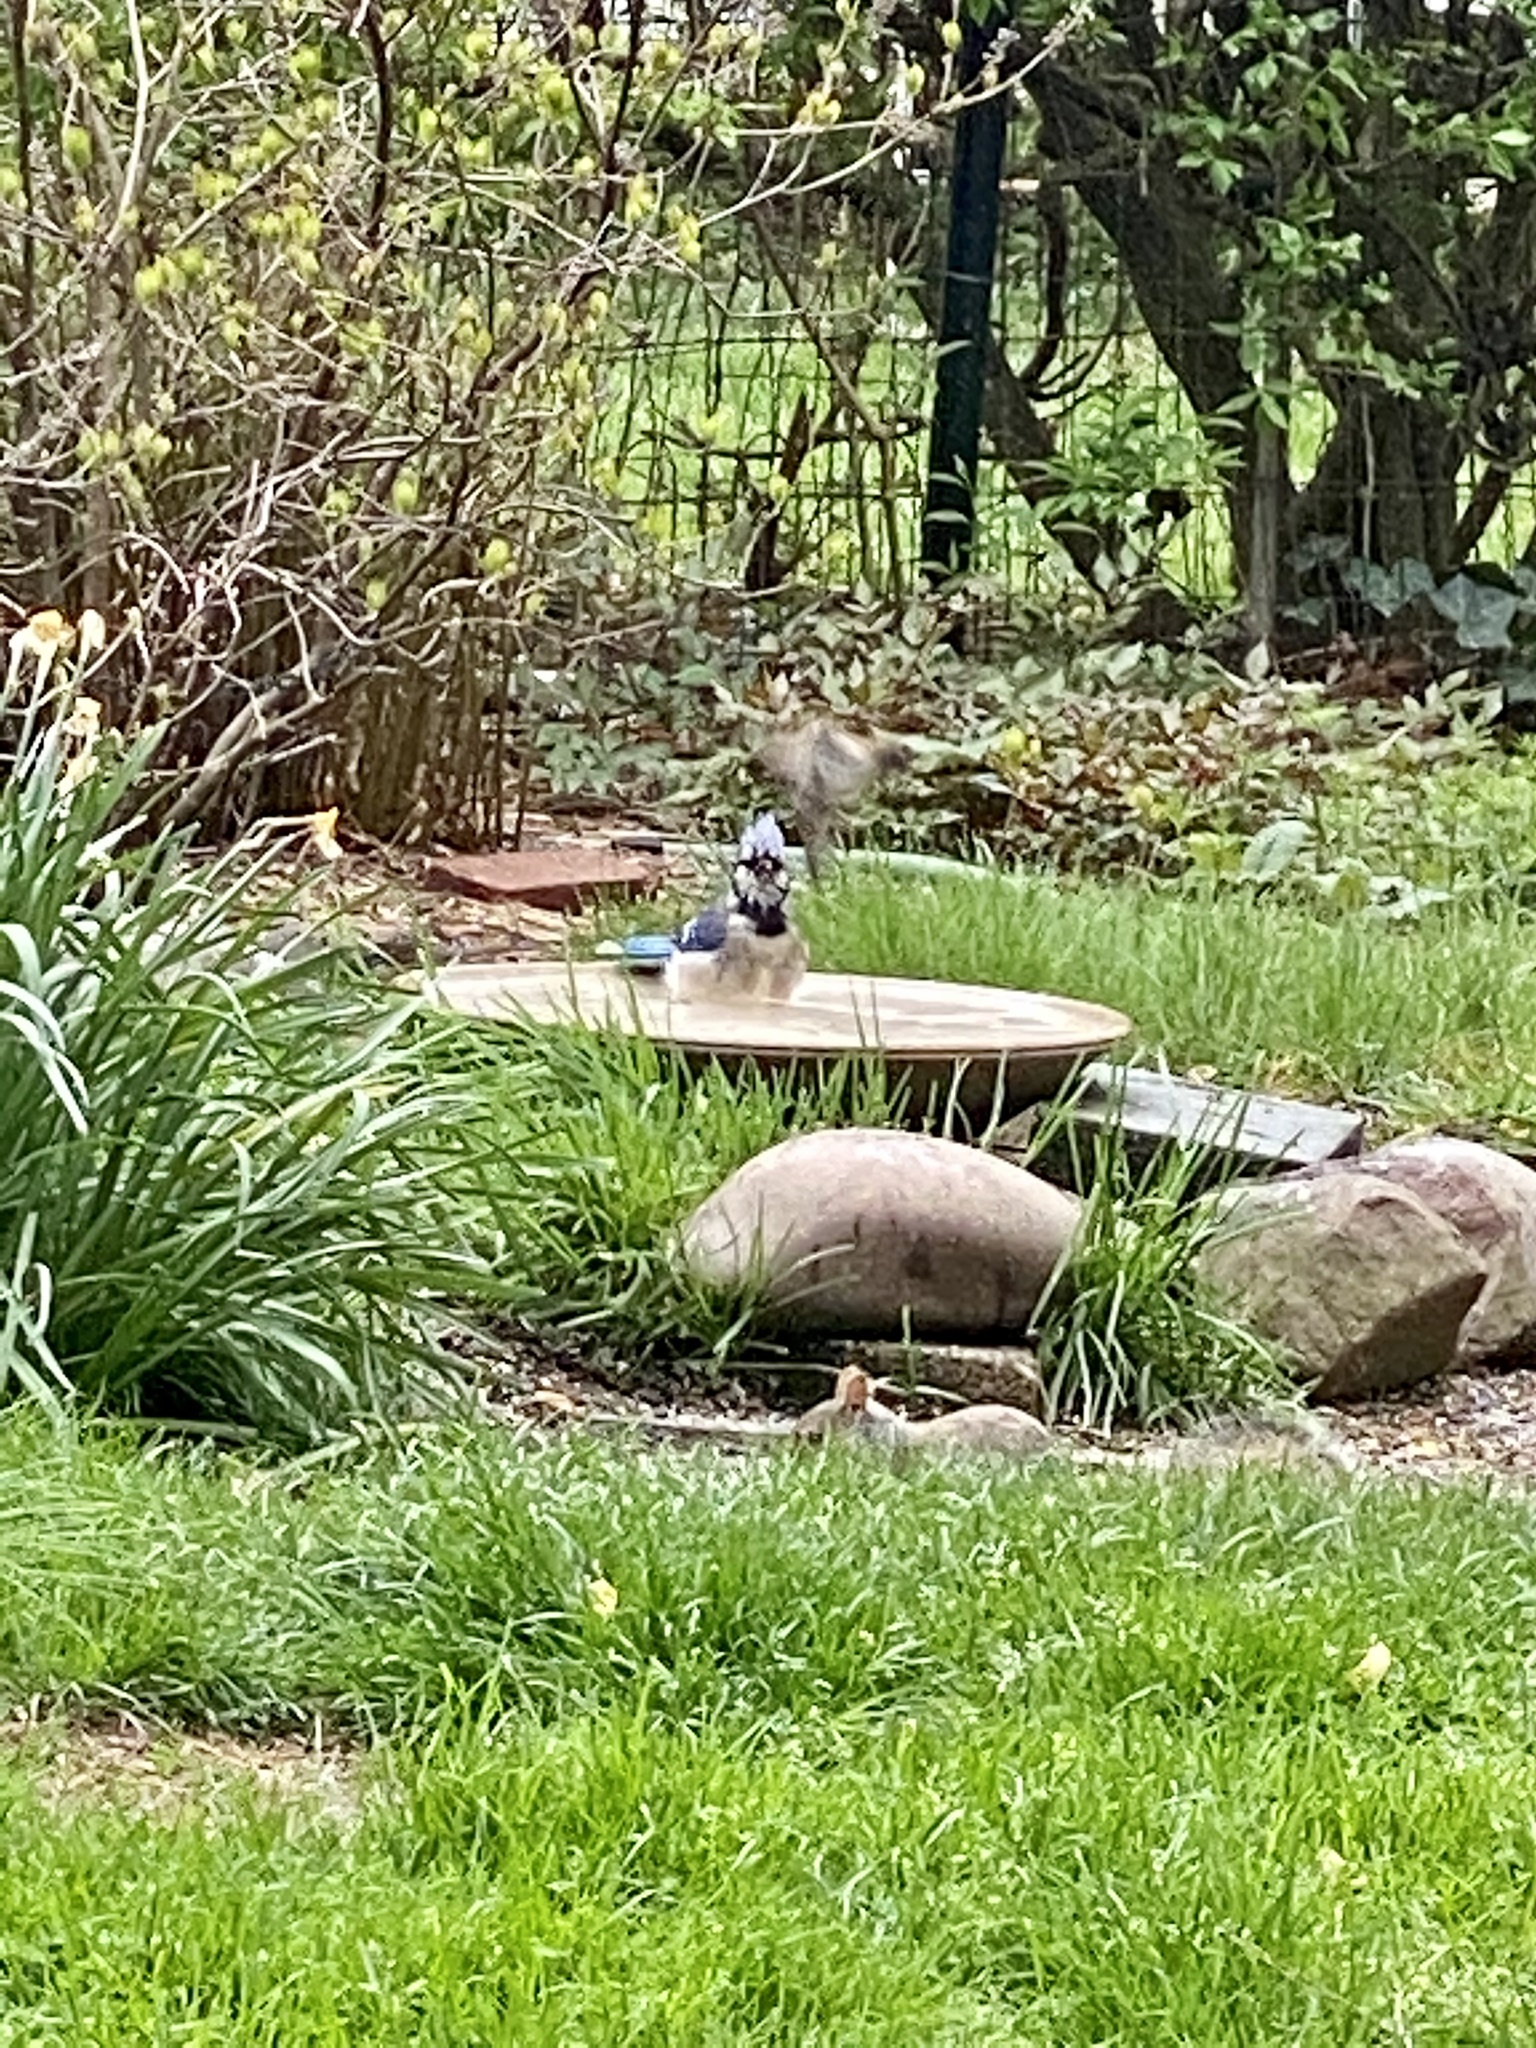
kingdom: Animalia
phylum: Chordata
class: Aves
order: Passeriformes
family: Corvidae
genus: Cyanocitta
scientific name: Cyanocitta cristata
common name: Blue jay
